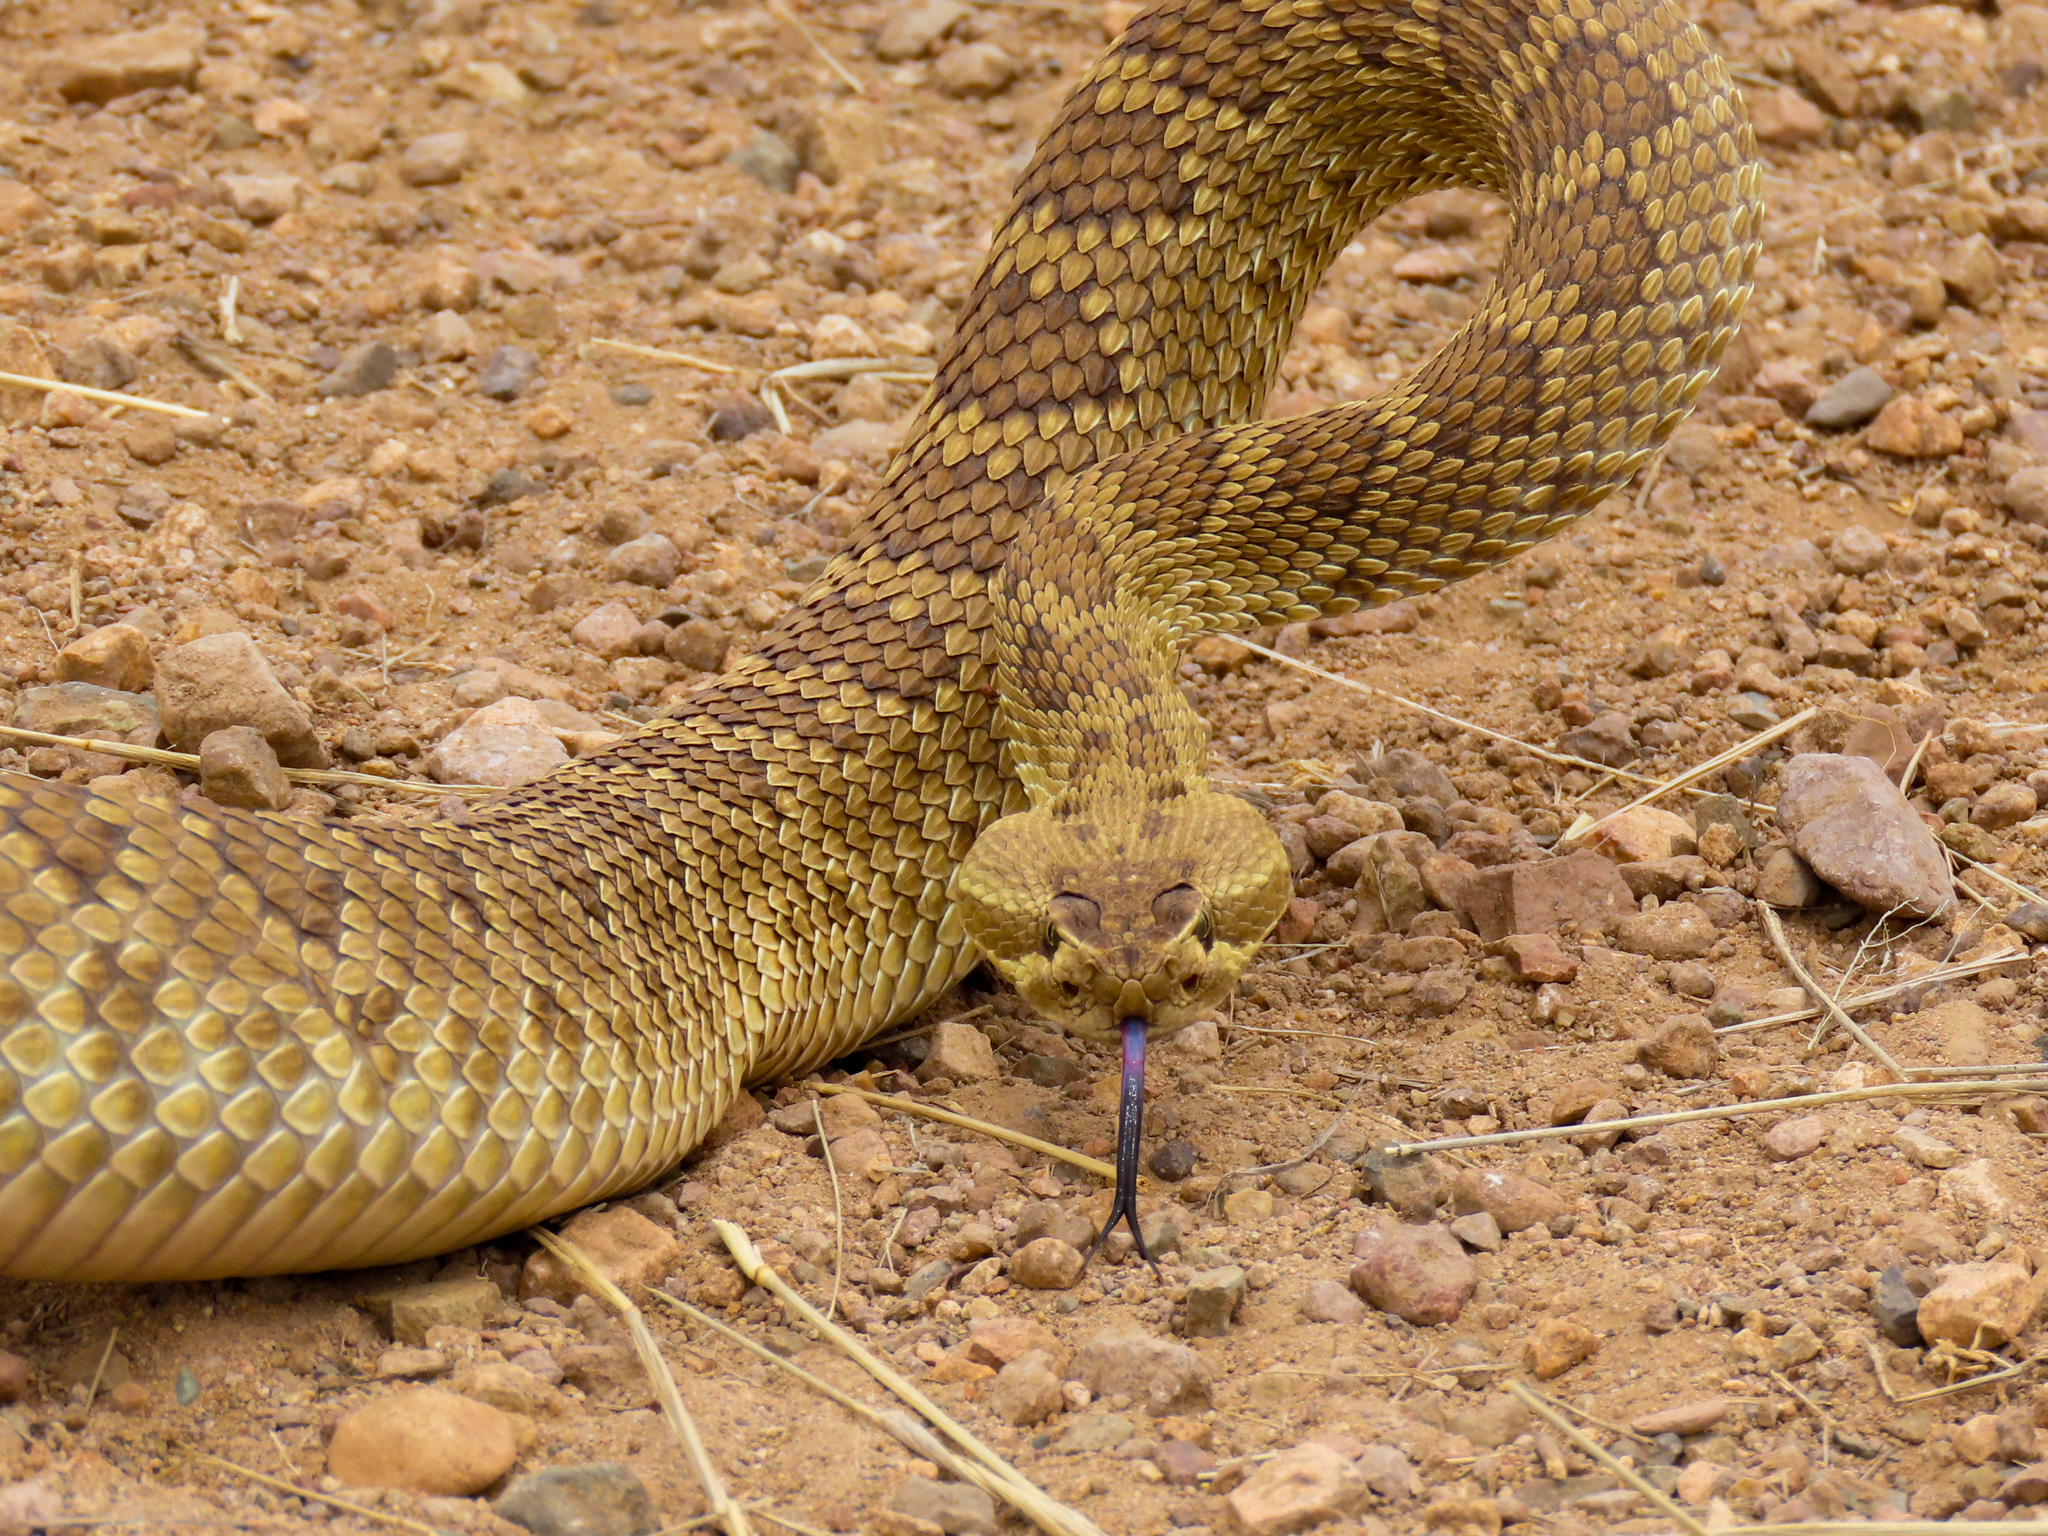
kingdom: Animalia
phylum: Chordata
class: Squamata
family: Viperidae
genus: Crotalus
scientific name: Crotalus scutulatus
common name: Scutulatus
